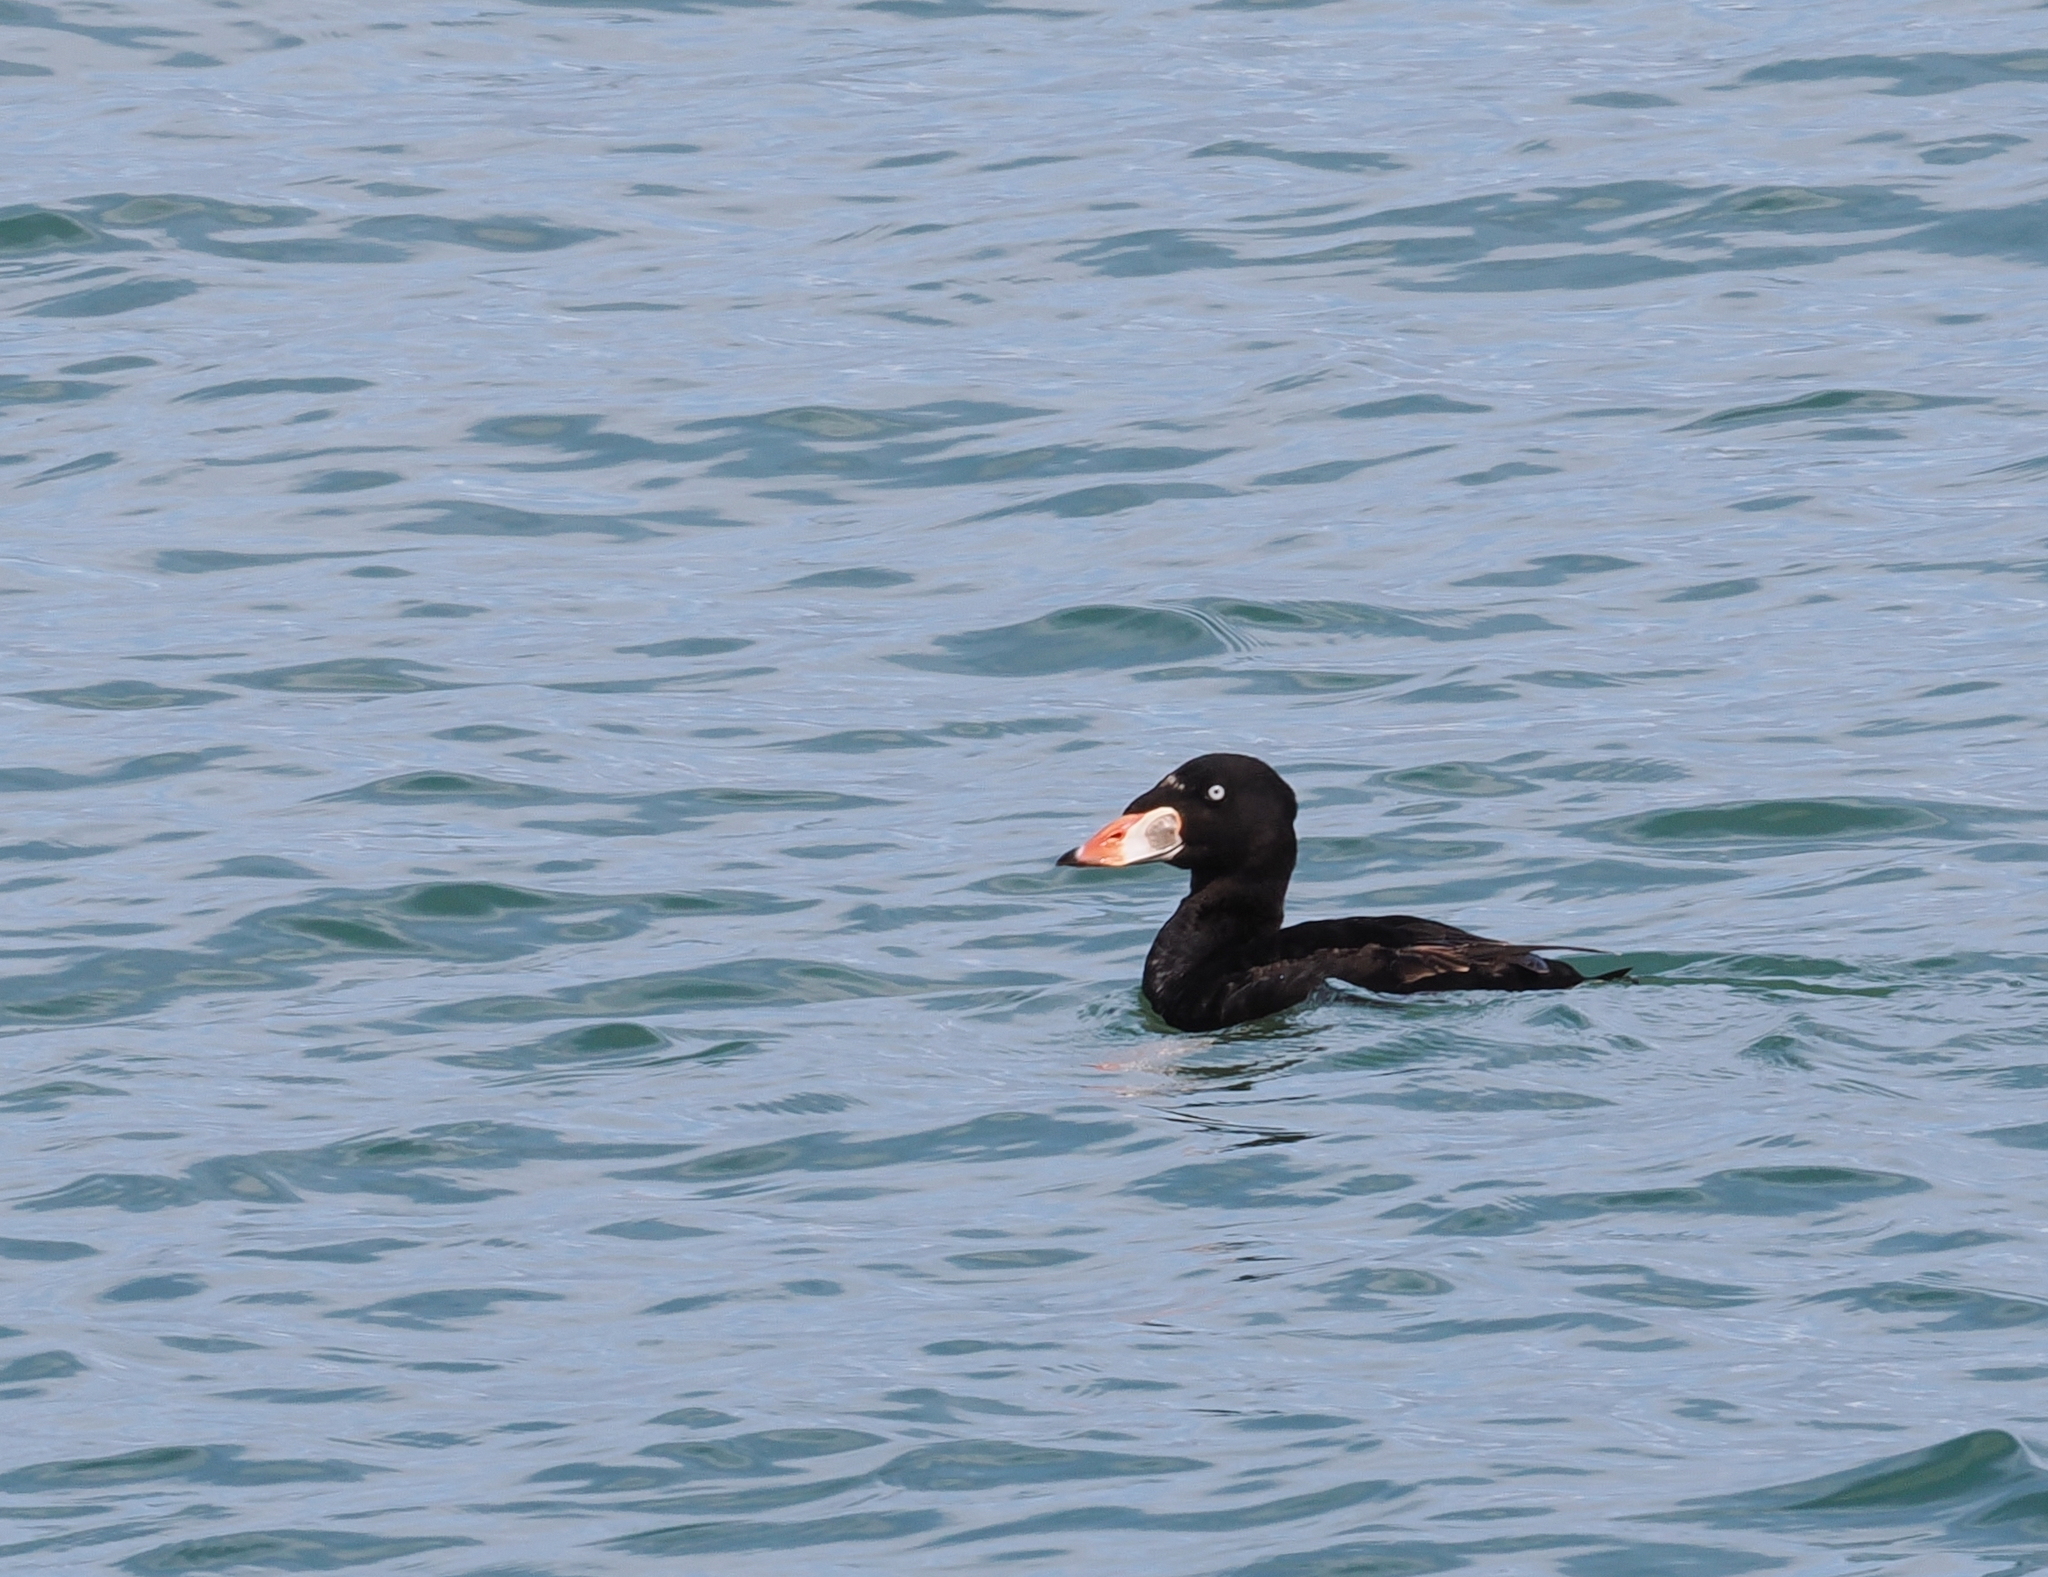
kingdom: Animalia
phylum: Chordata
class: Aves
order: Anseriformes
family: Anatidae
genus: Melanitta
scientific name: Melanitta perspicillata
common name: Surf scoter
